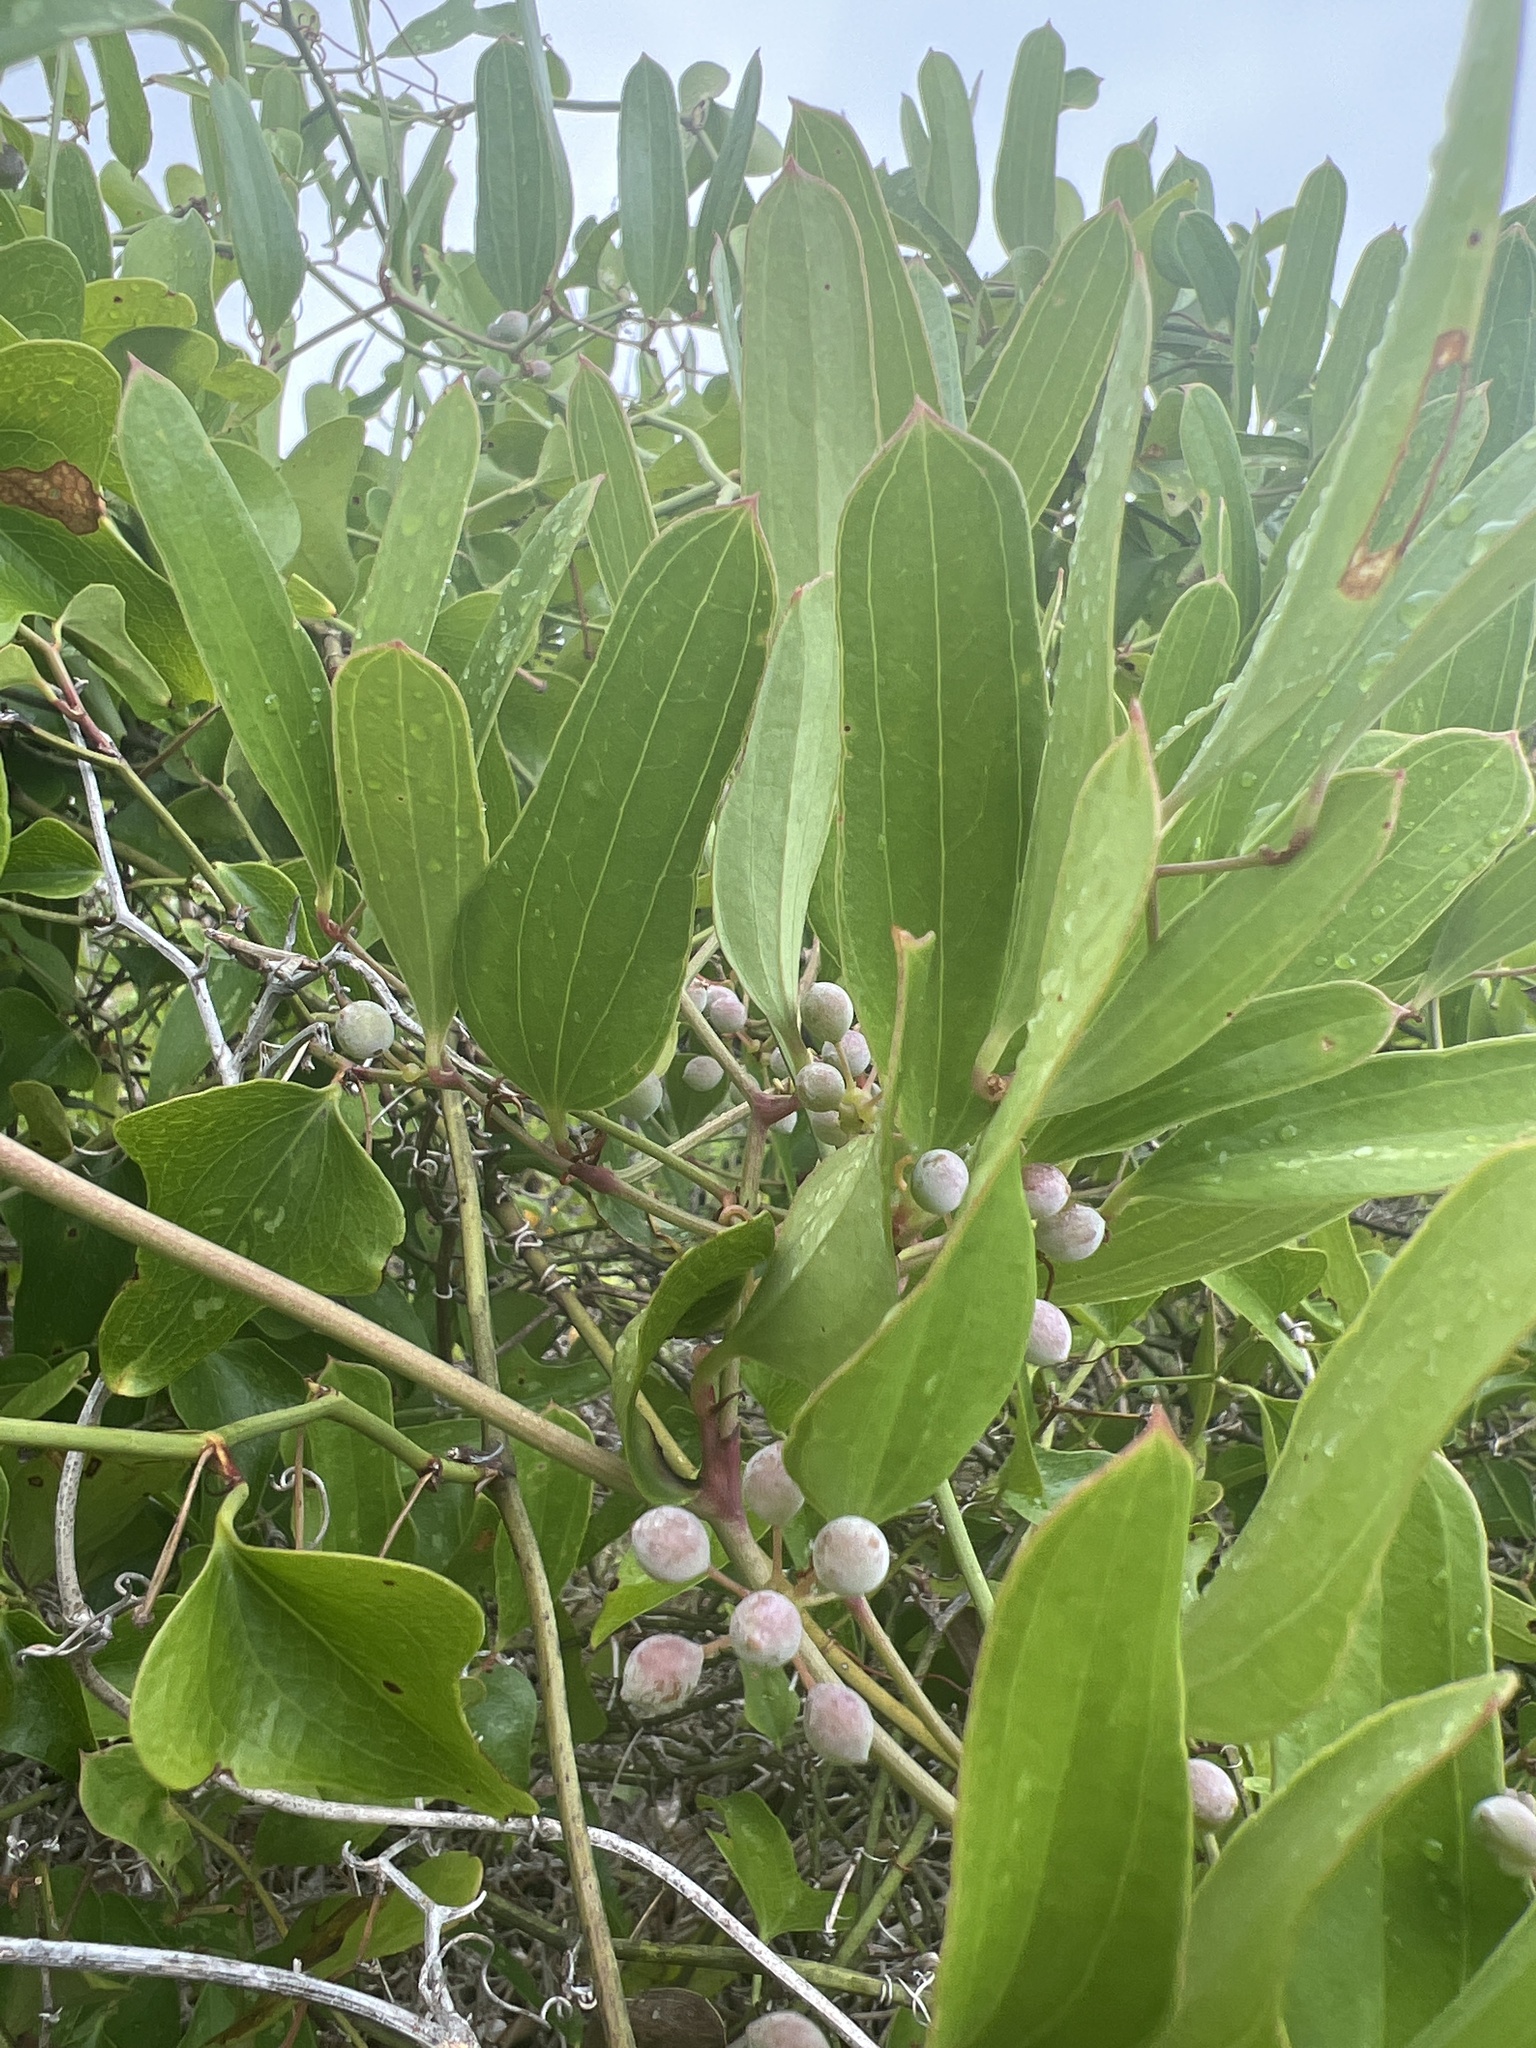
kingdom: Plantae
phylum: Tracheophyta
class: Liliopsida
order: Liliales
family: Smilacaceae
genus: Smilax
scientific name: Smilax auriculata
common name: Wild bamboo
